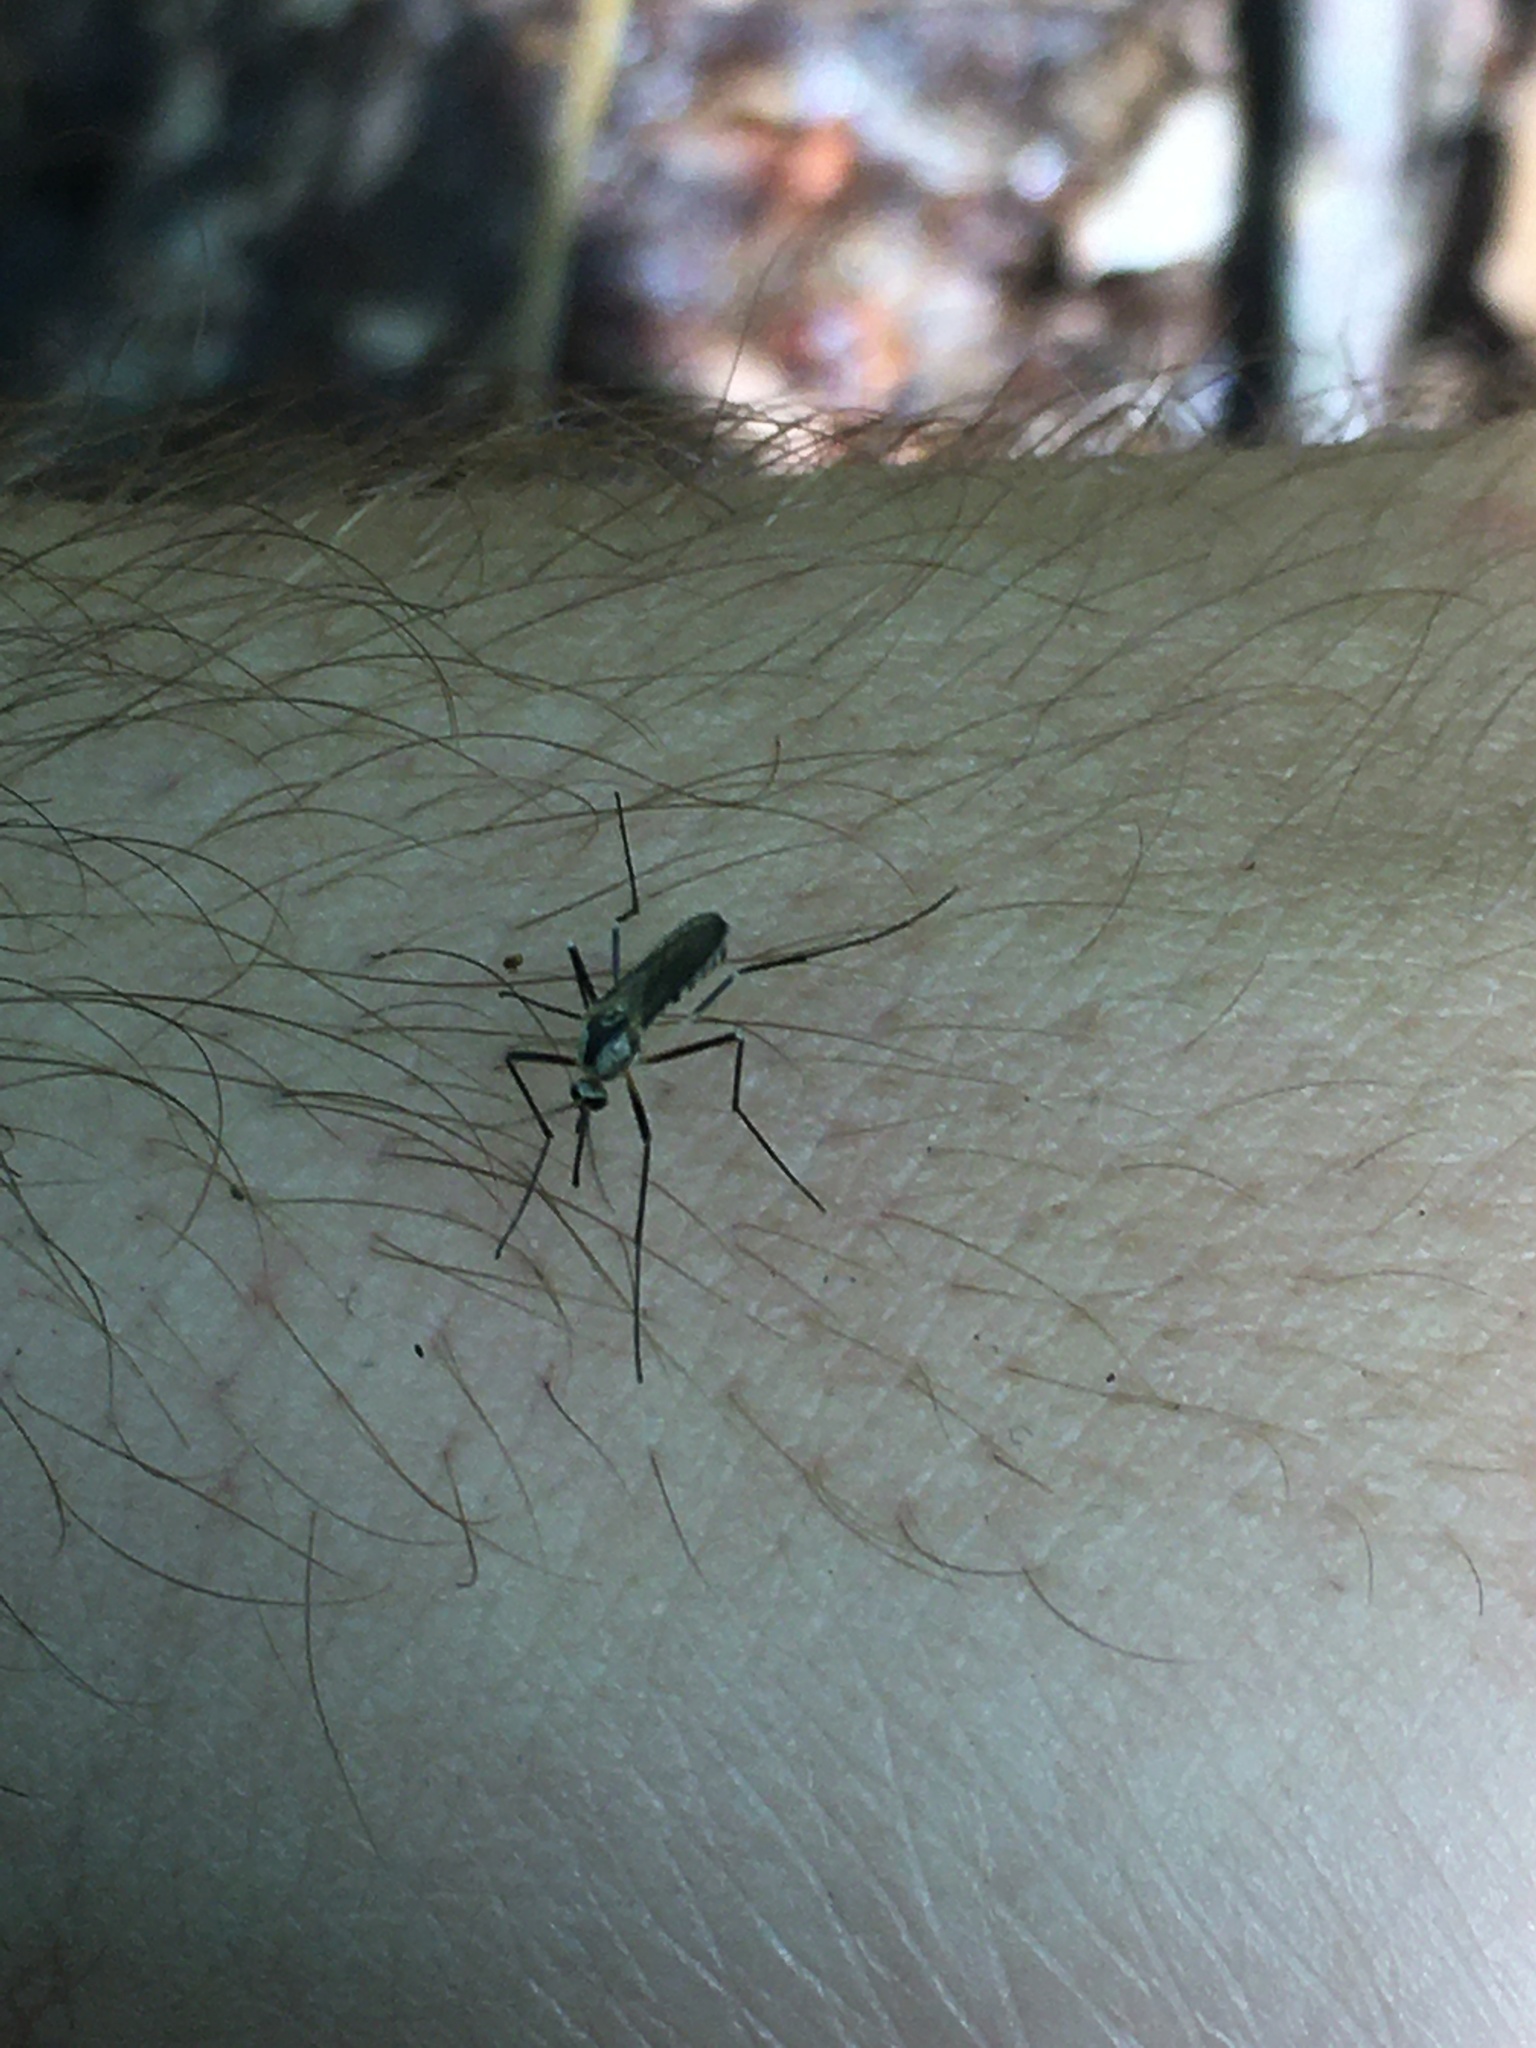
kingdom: Animalia
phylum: Arthropoda
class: Insecta
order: Diptera
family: Culicidae
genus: Aedes
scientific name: Aedes triseriatus
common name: Eastern treehole mosquito
